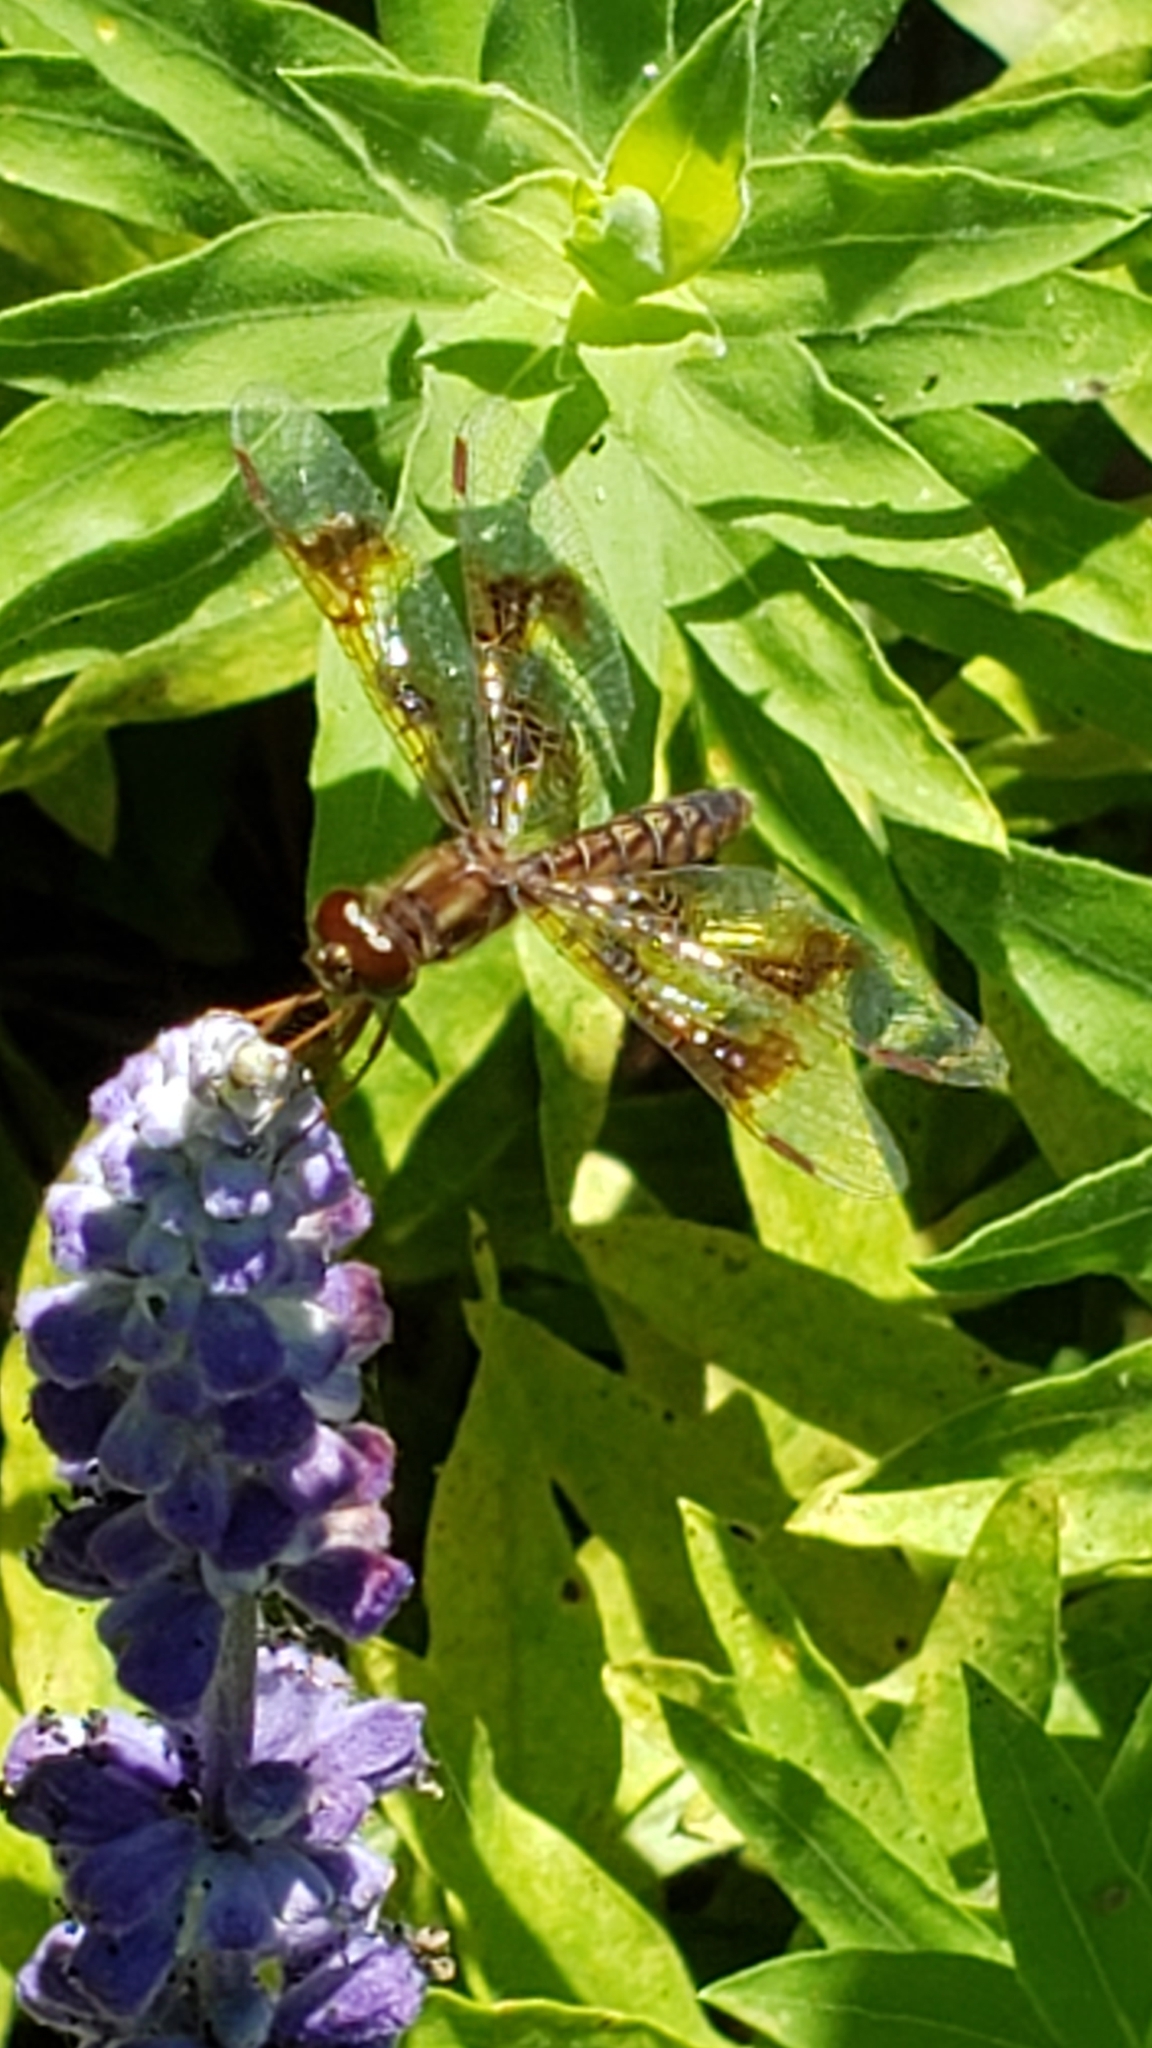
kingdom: Animalia
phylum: Arthropoda
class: Insecta
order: Odonata
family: Libellulidae
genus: Perithemis
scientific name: Perithemis tenera
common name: Eastern amberwing
